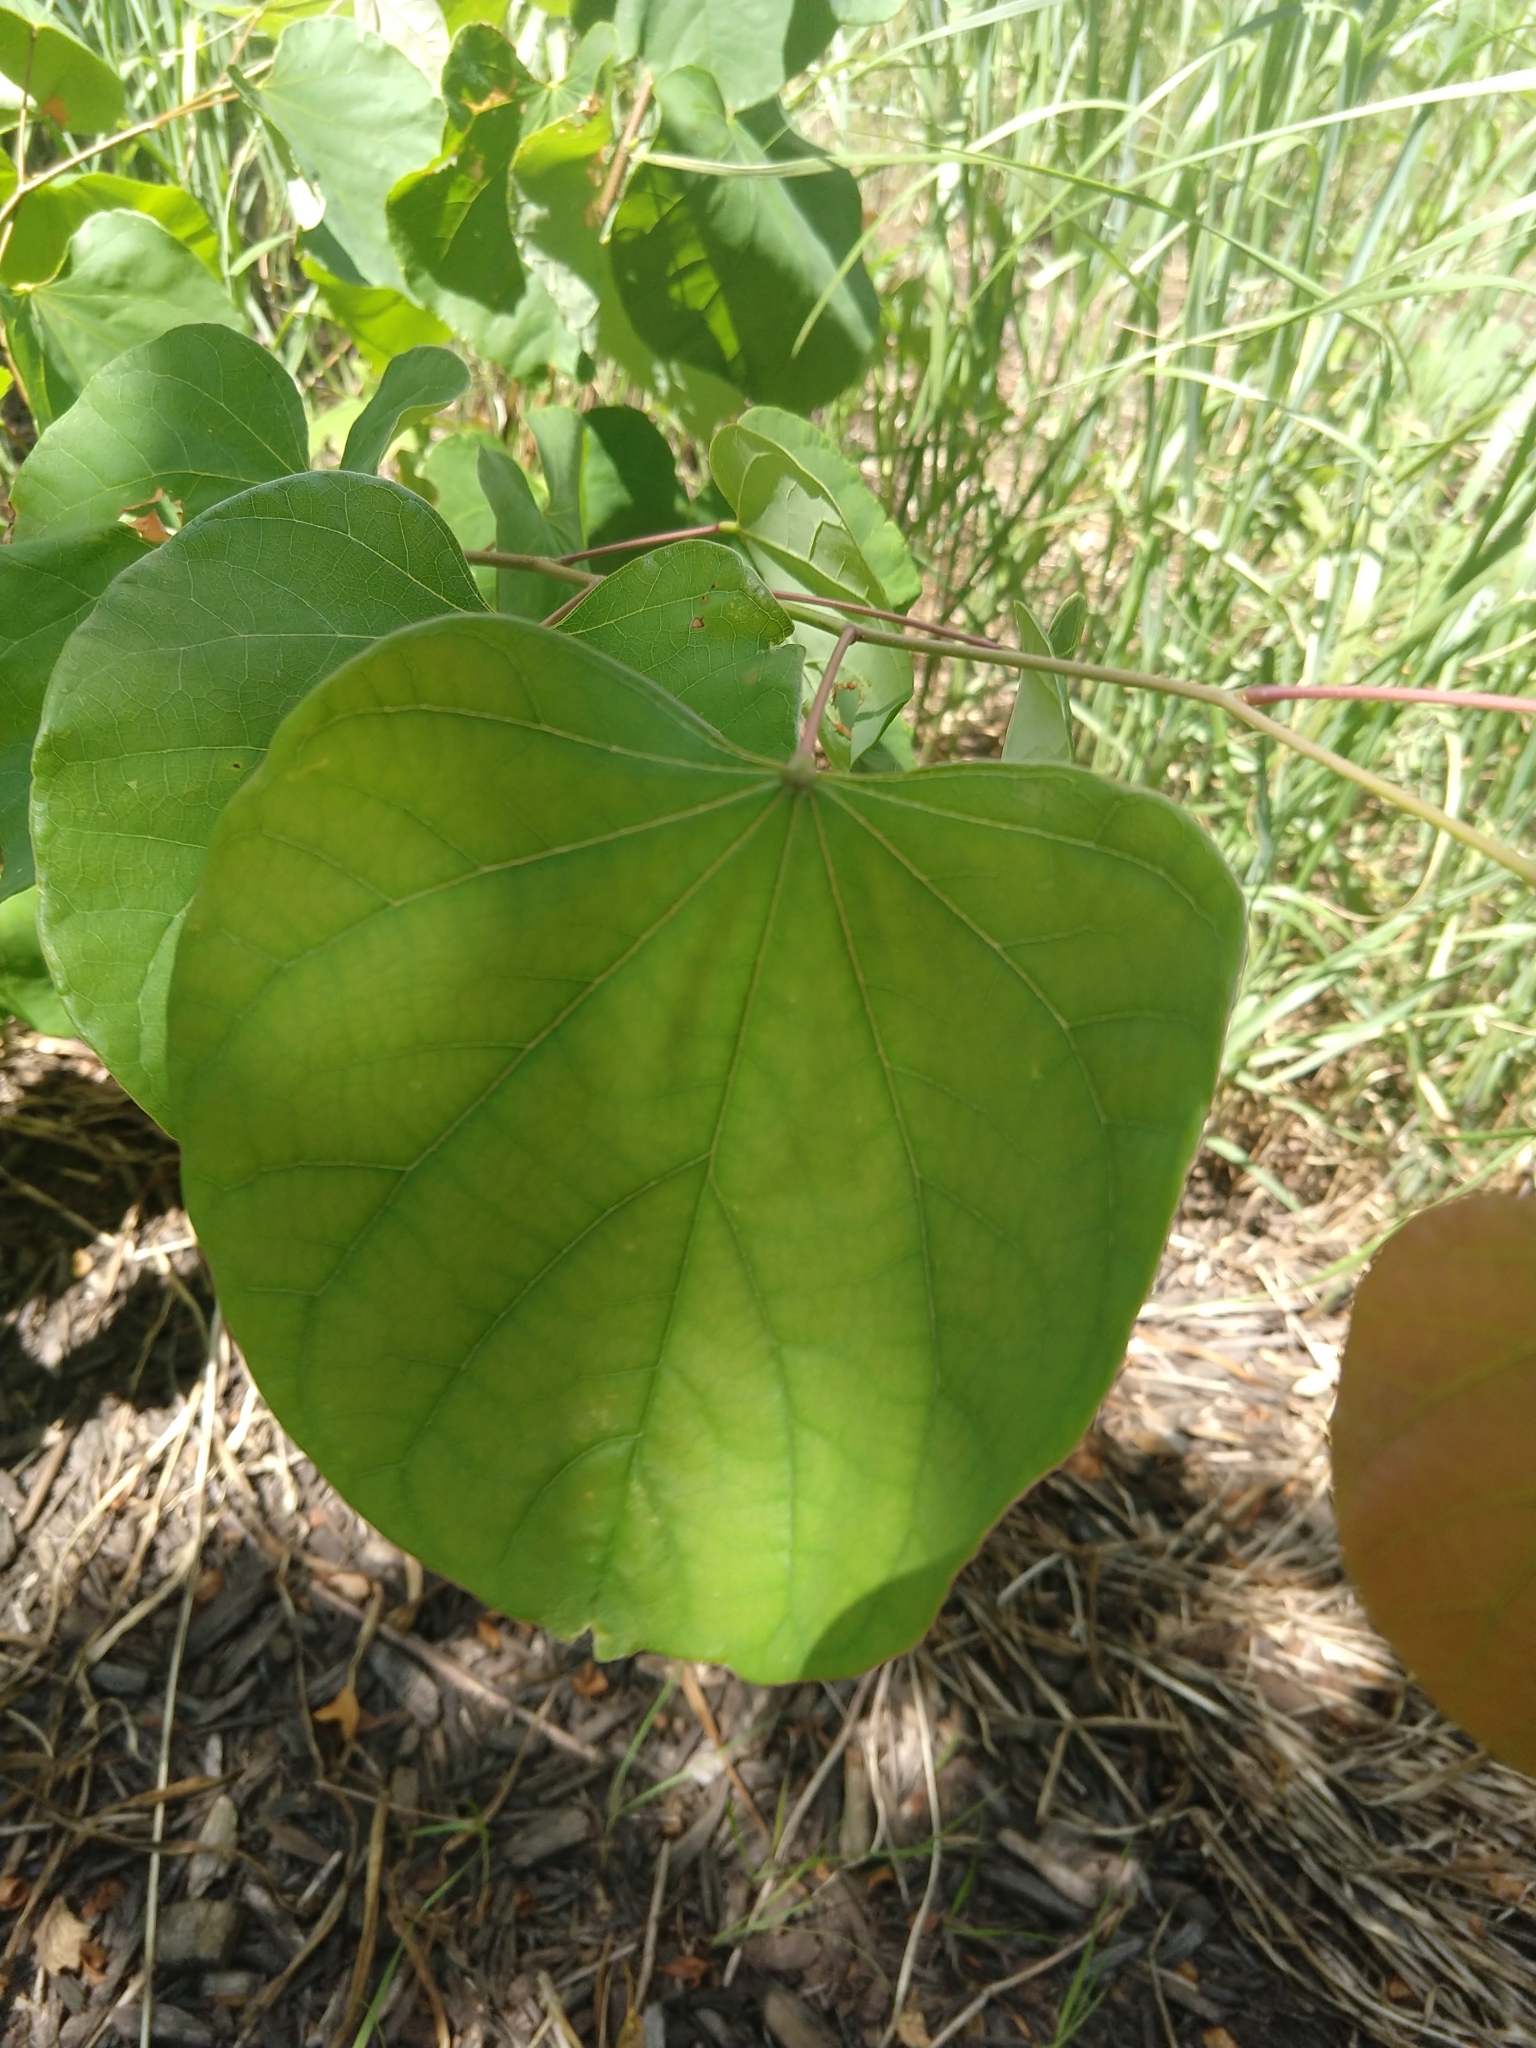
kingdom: Plantae
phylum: Tracheophyta
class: Magnoliopsida
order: Fabales
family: Fabaceae
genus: Cercis
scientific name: Cercis canadensis
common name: Eastern redbud
